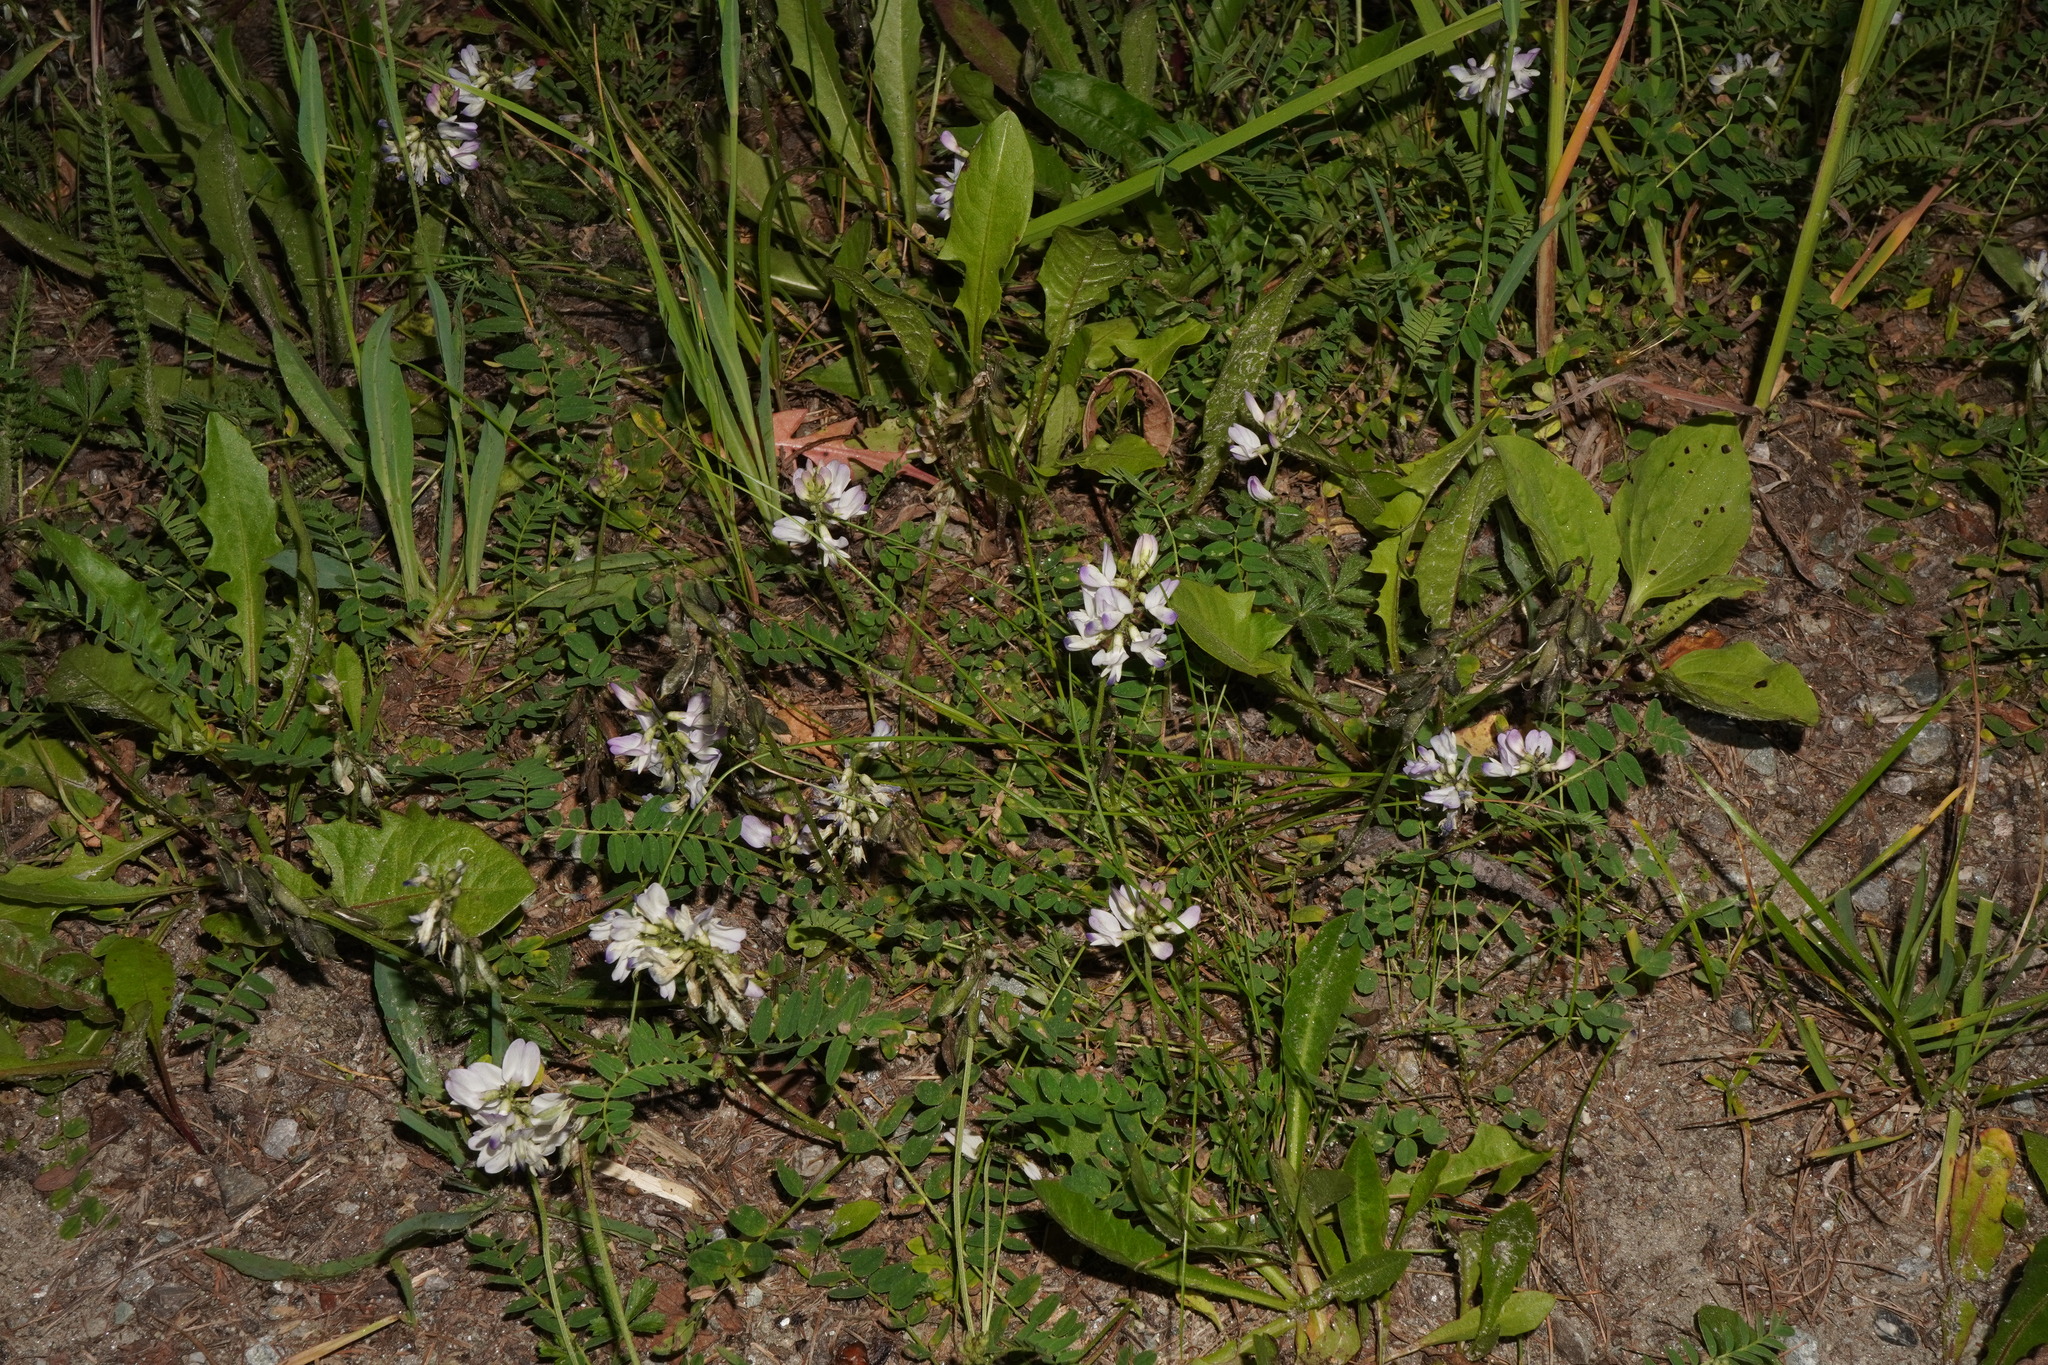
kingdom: Plantae
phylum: Tracheophyta
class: Magnoliopsida
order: Fabales
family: Fabaceae
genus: Astragalus
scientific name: Astragalus alpinus
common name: Alpine milk-vetch
